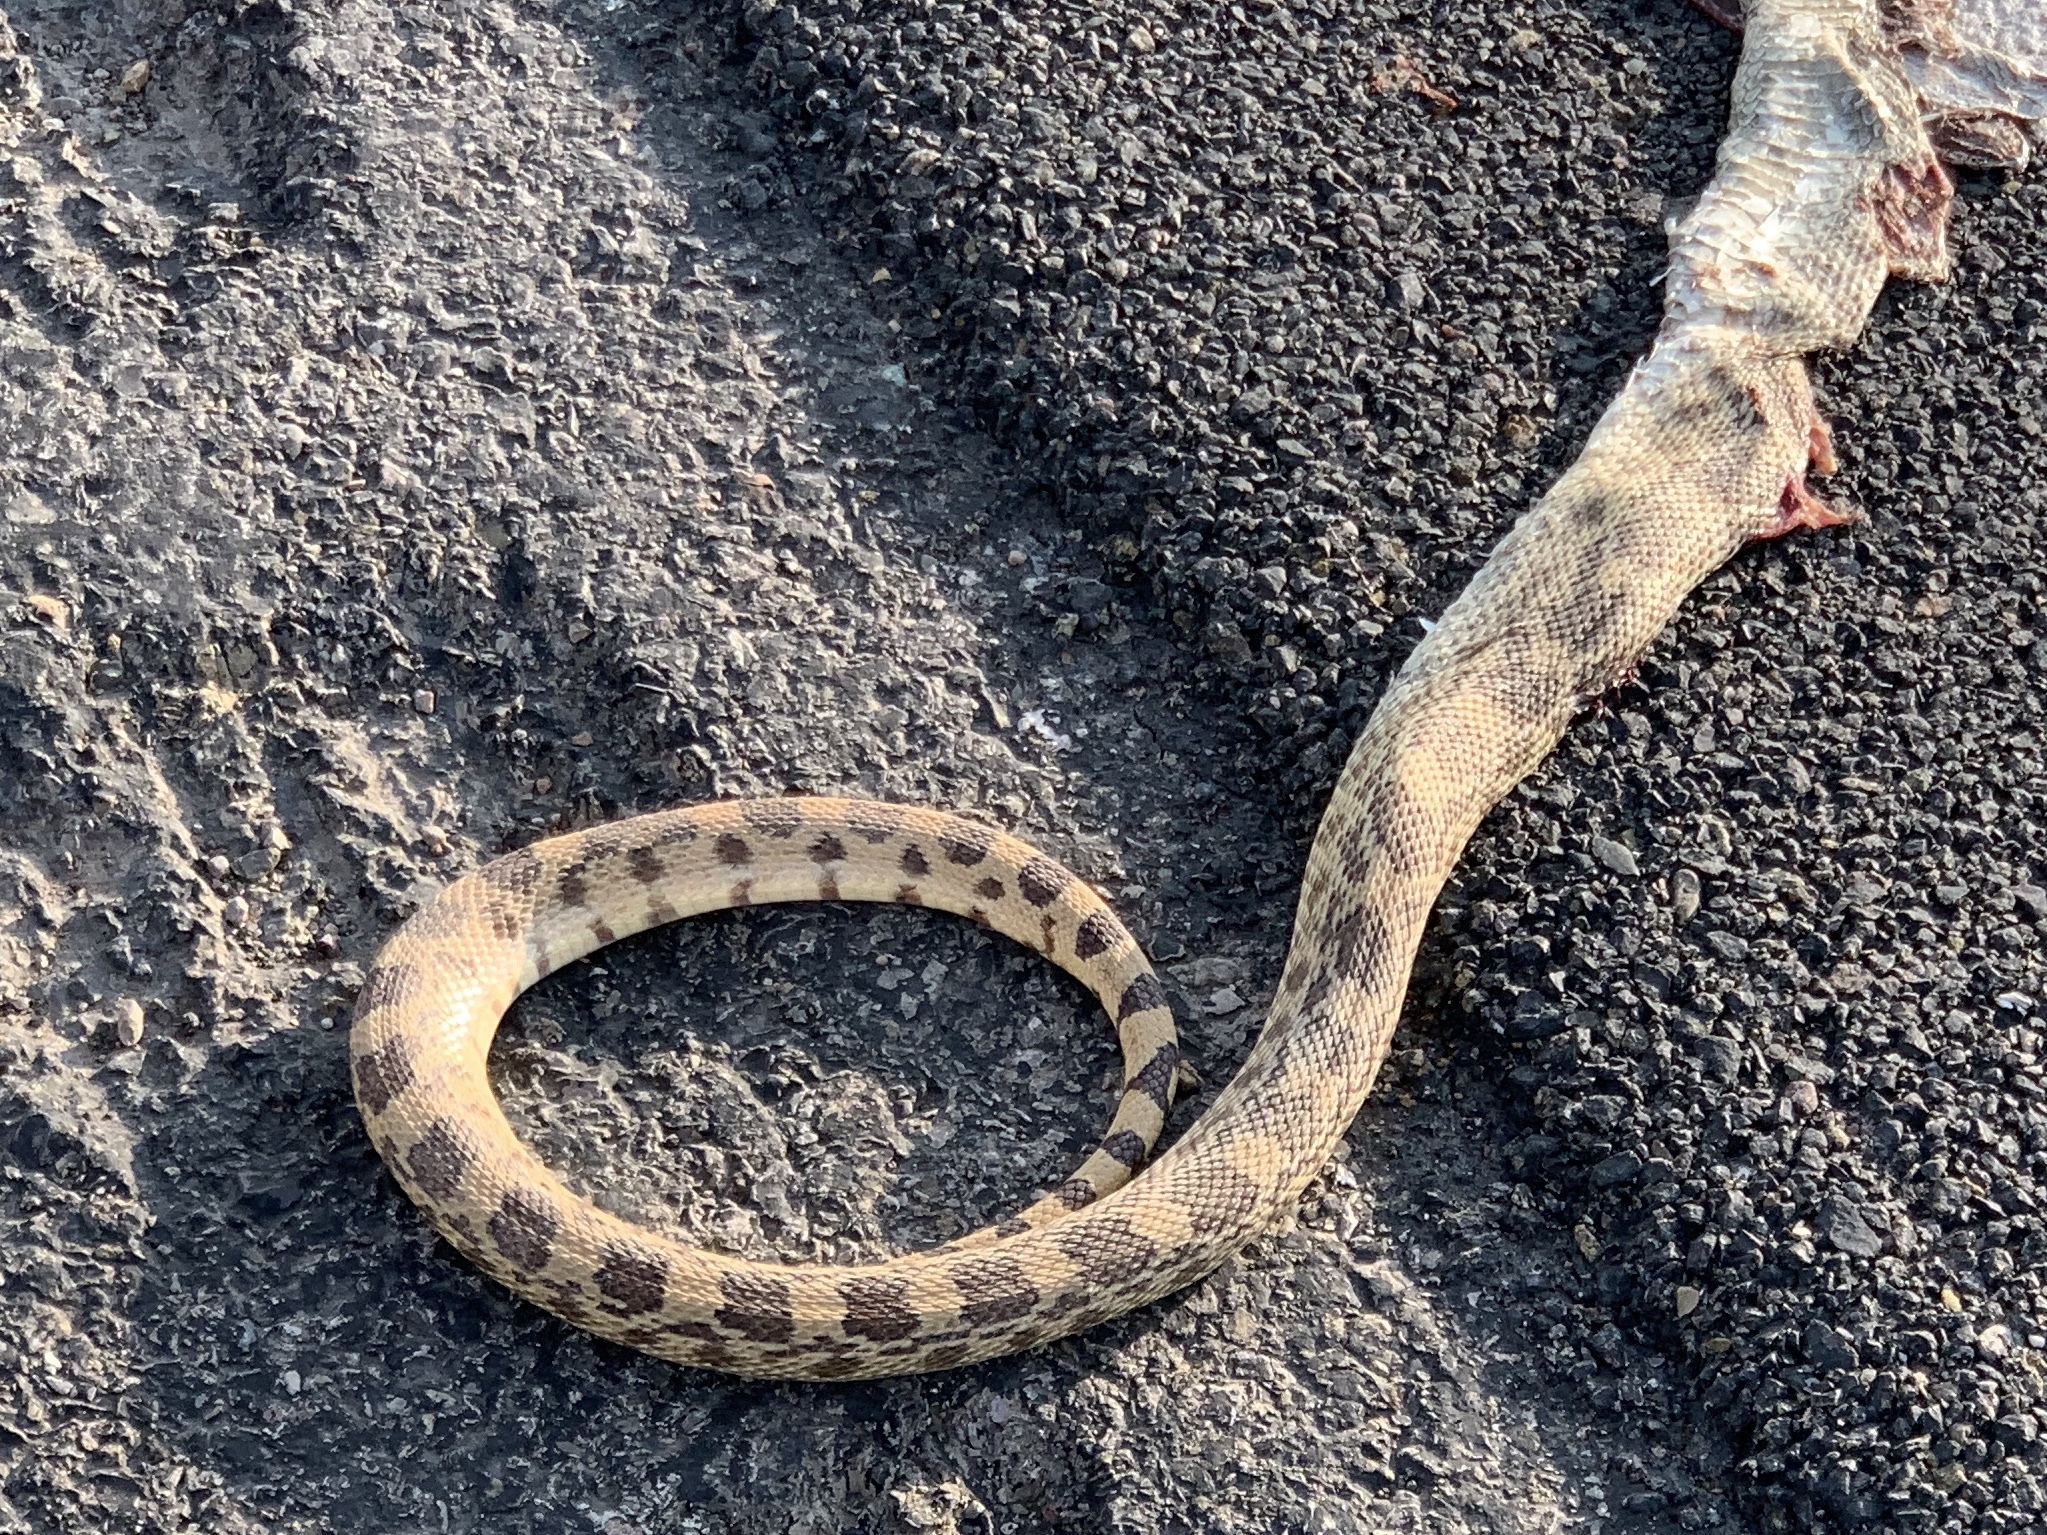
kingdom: Animalia
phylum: Chordata
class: Squamata
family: Colubridae
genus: Pituophis
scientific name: Pituophis catenifer
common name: Gopher snake
